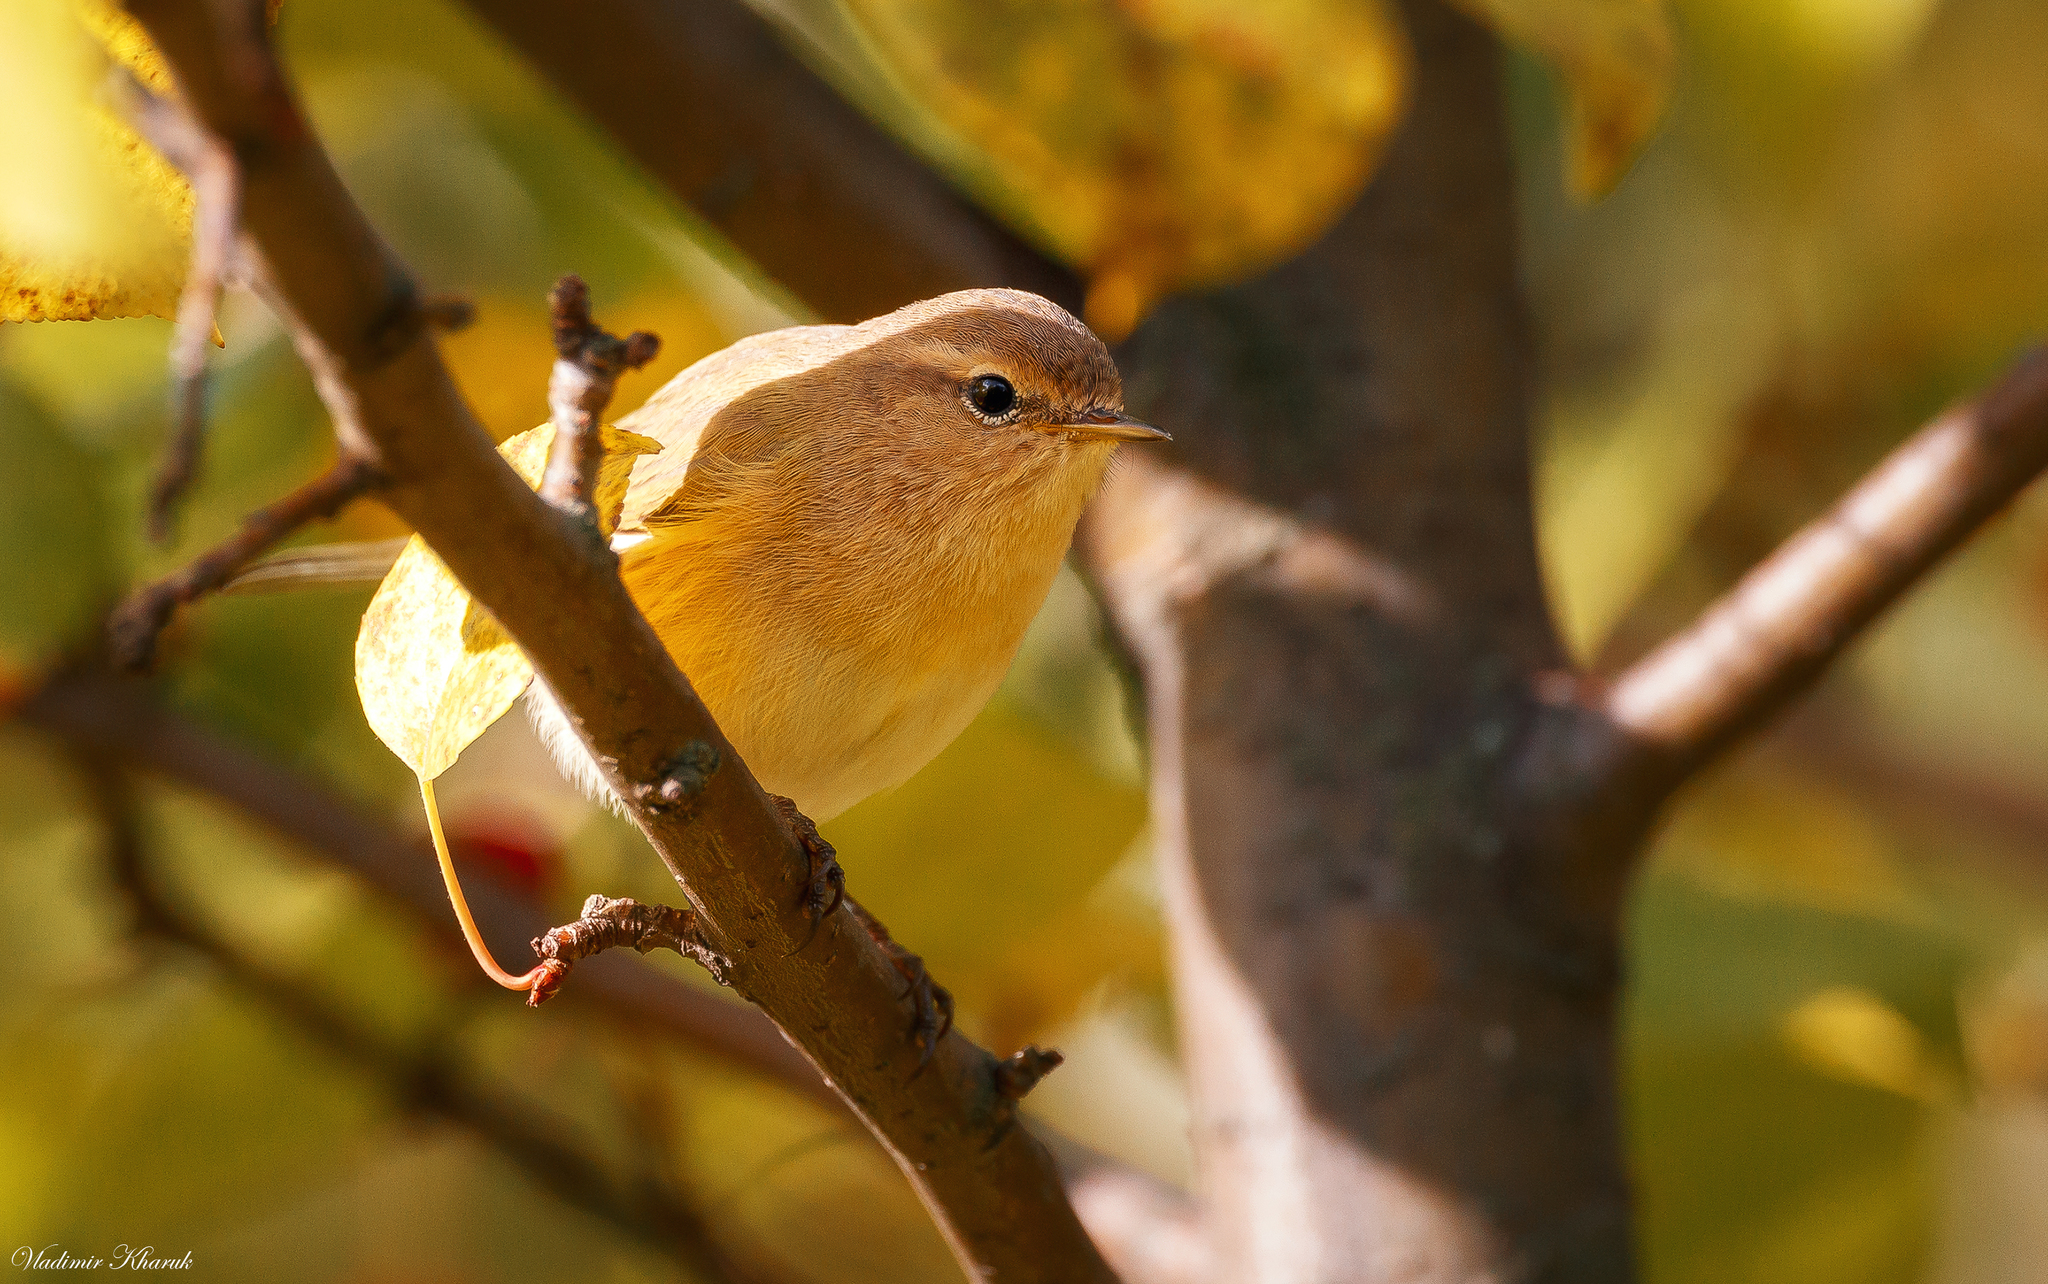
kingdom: Animalia
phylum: Chordata
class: Aves
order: Passeriformes
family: Phylloscopidae
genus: Phylloscopus
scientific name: Phylloscopus collybita
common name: Common chiffchaff
